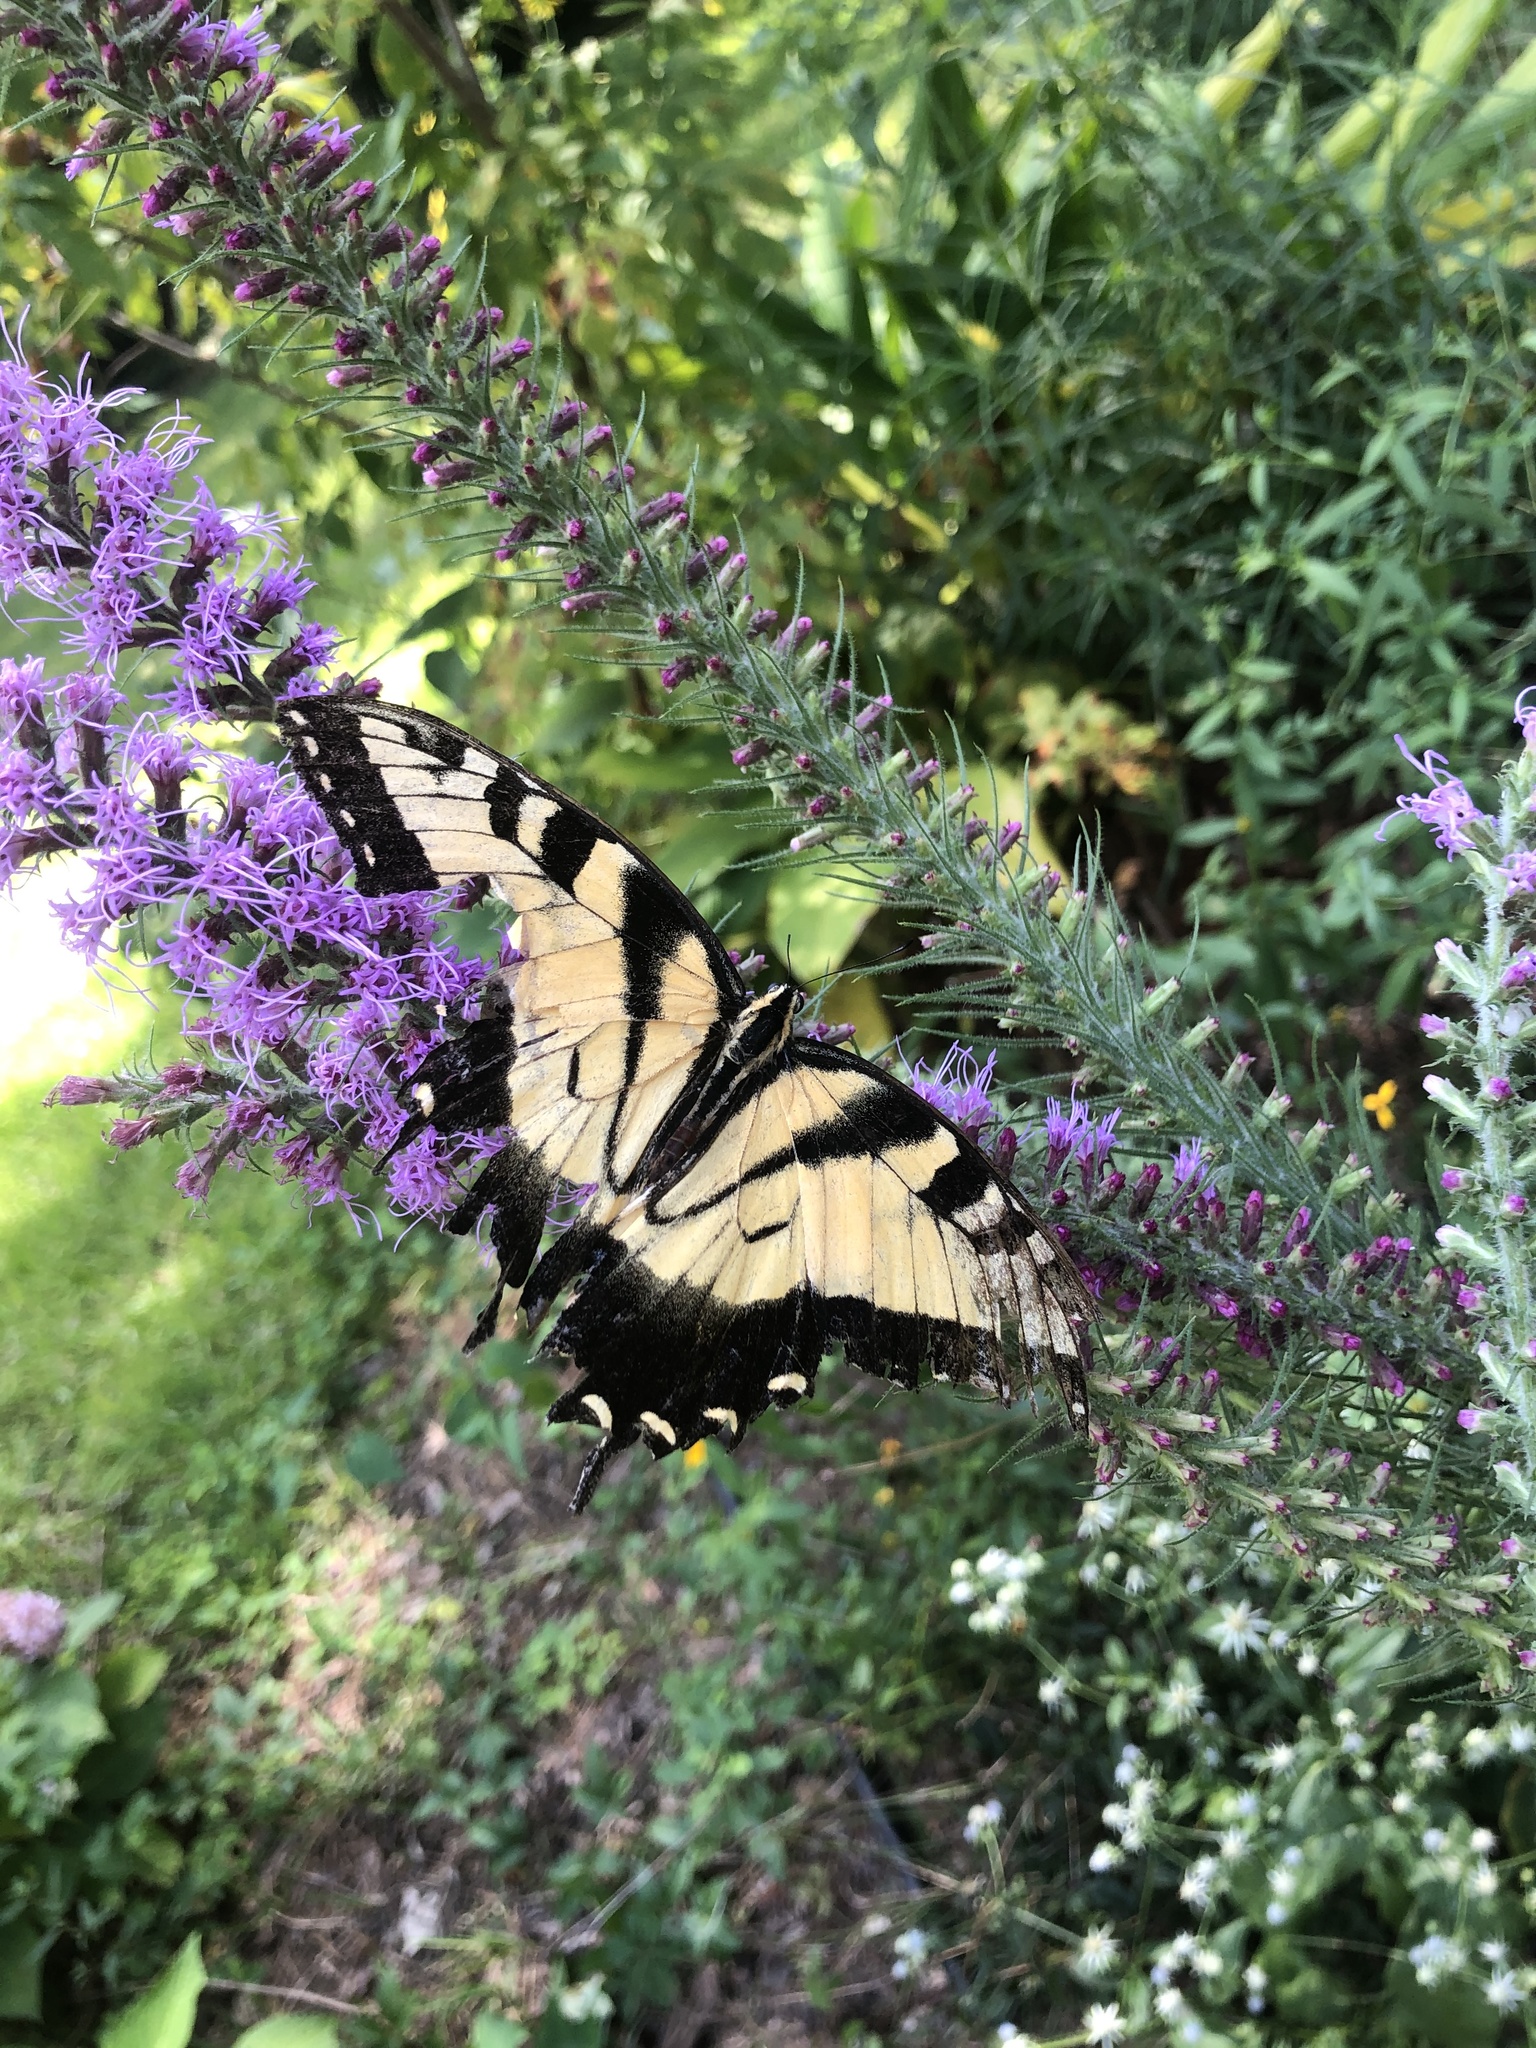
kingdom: Animalia
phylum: Arthropoda
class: Insecta
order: Lepidoptera
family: Papilionidae
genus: Papilio
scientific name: Papilio glaucus
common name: Tiger swallowtail
